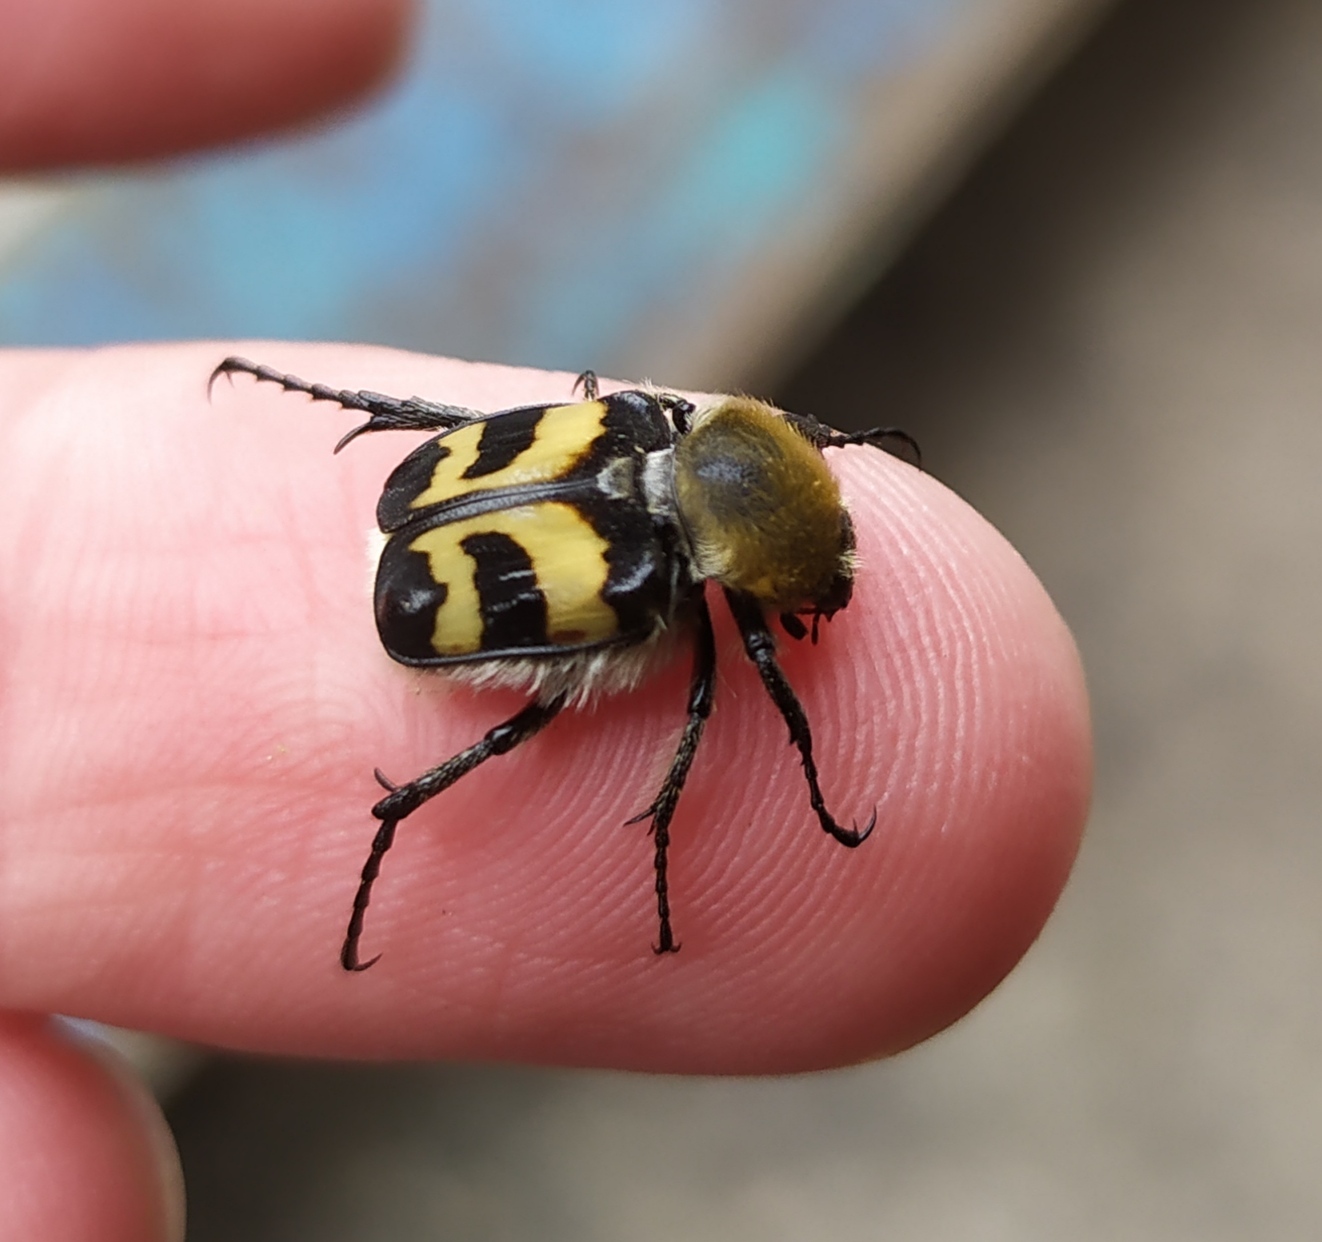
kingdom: Animalia
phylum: Arthropoda
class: Insecta
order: Coleoptera
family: Scarabaeidae
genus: Trichius
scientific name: Trichius
